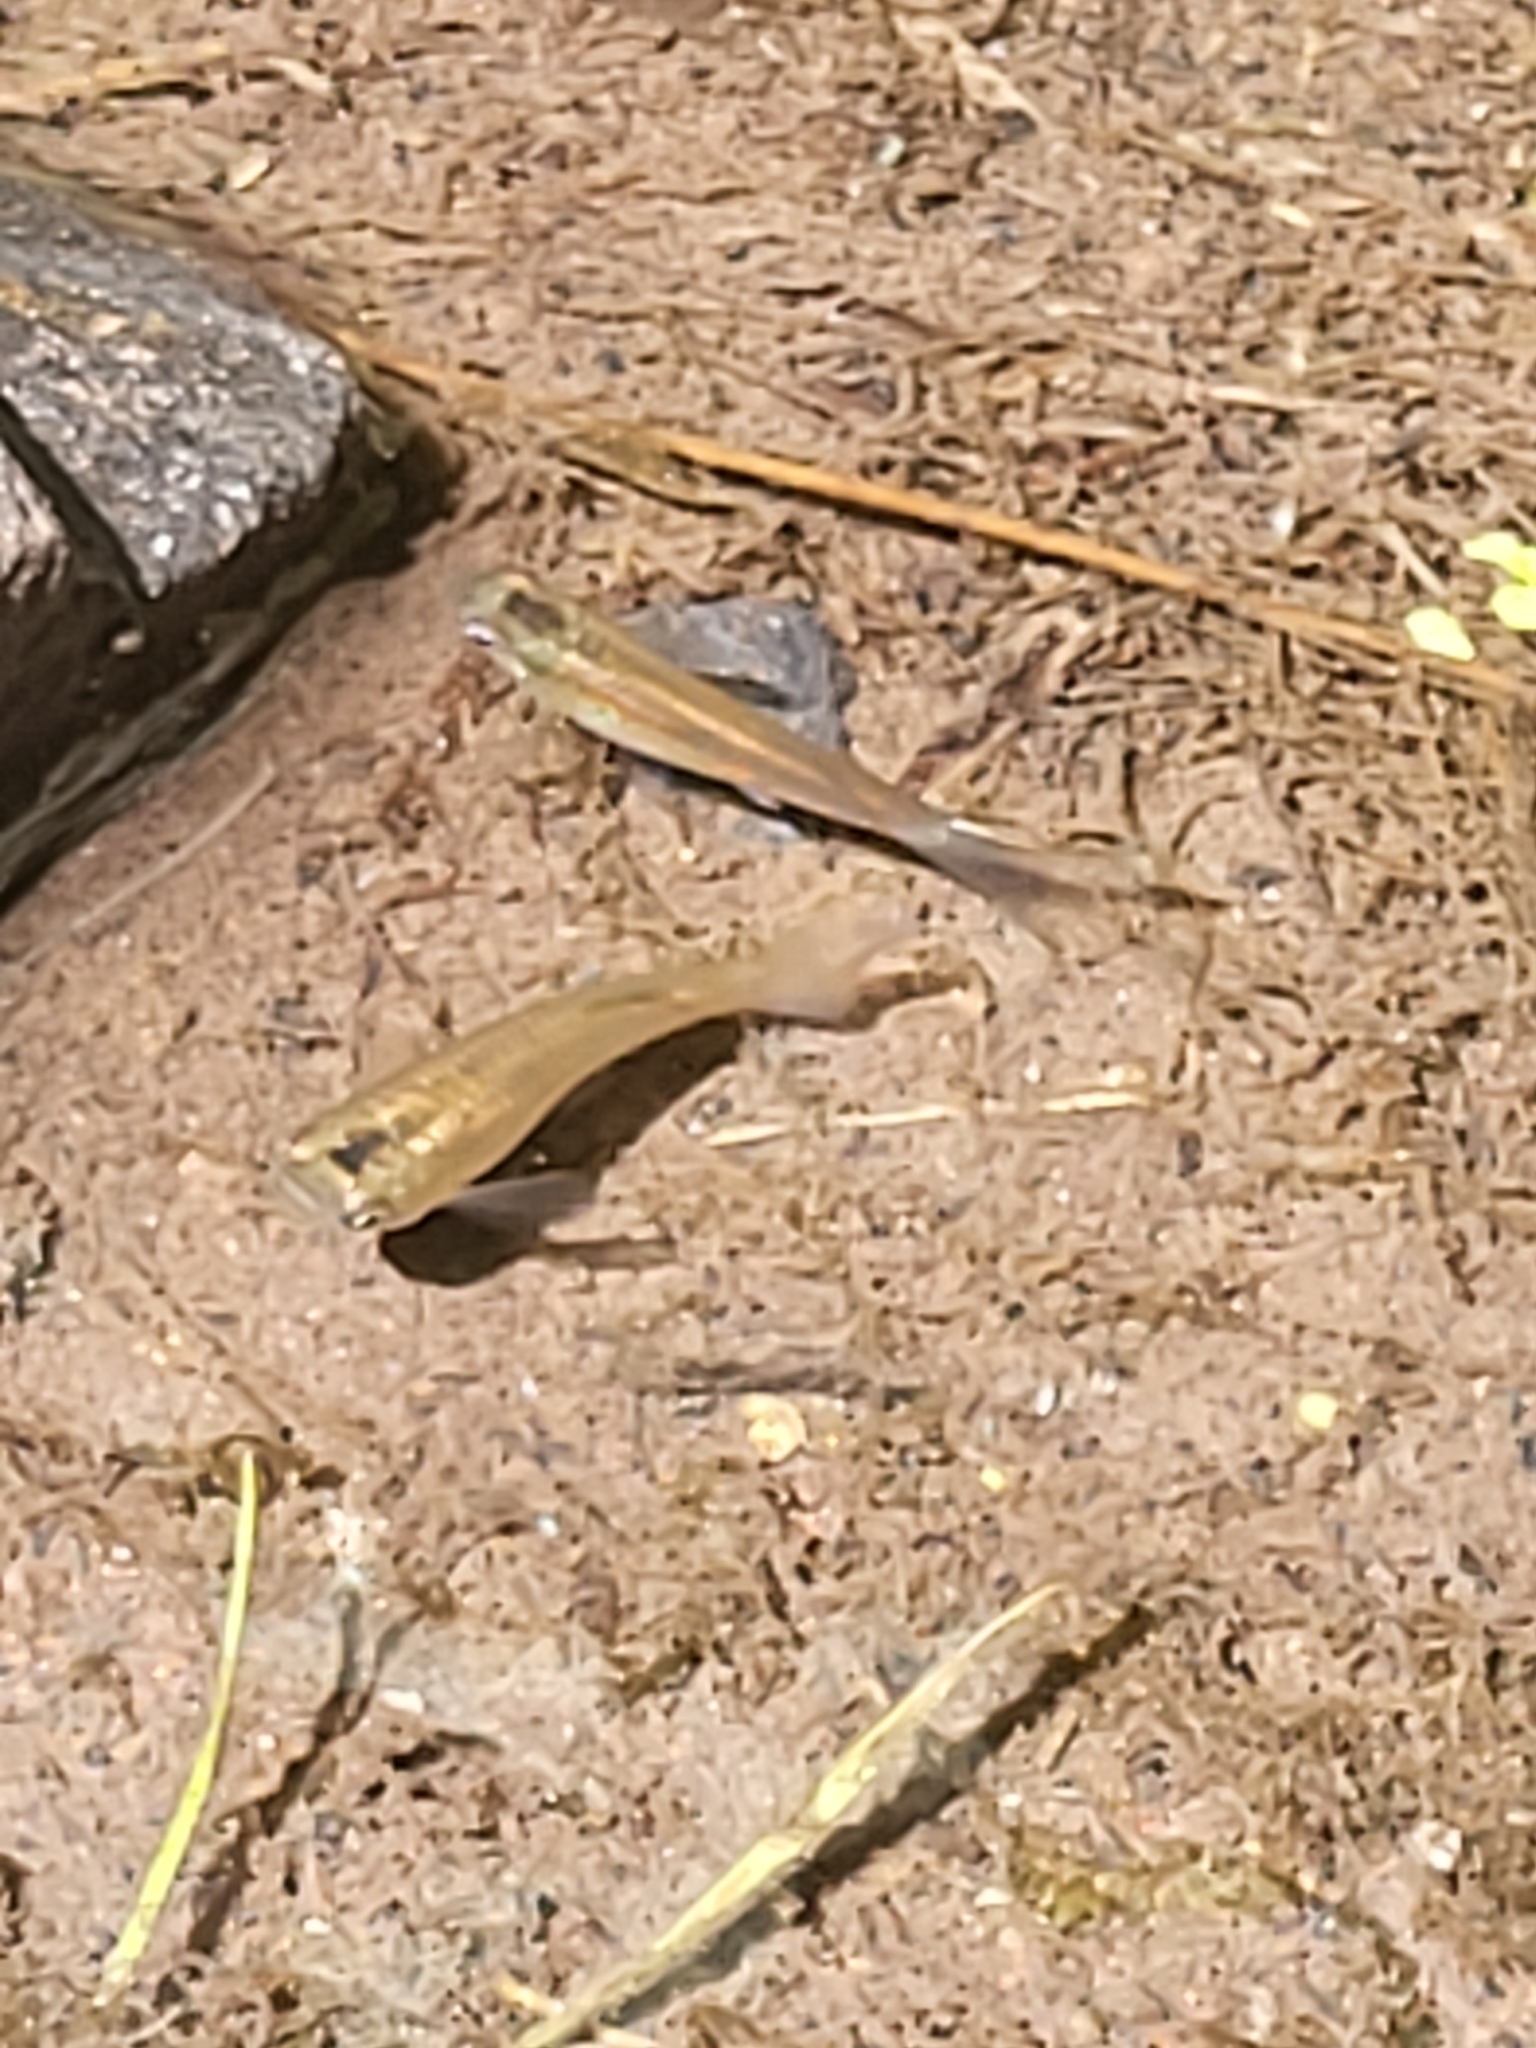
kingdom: Animalia
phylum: Chordata
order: Cyprinodontiformes
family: Poeciliidae
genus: Poecilia
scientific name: Poecilia reticulata
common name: Guppy
